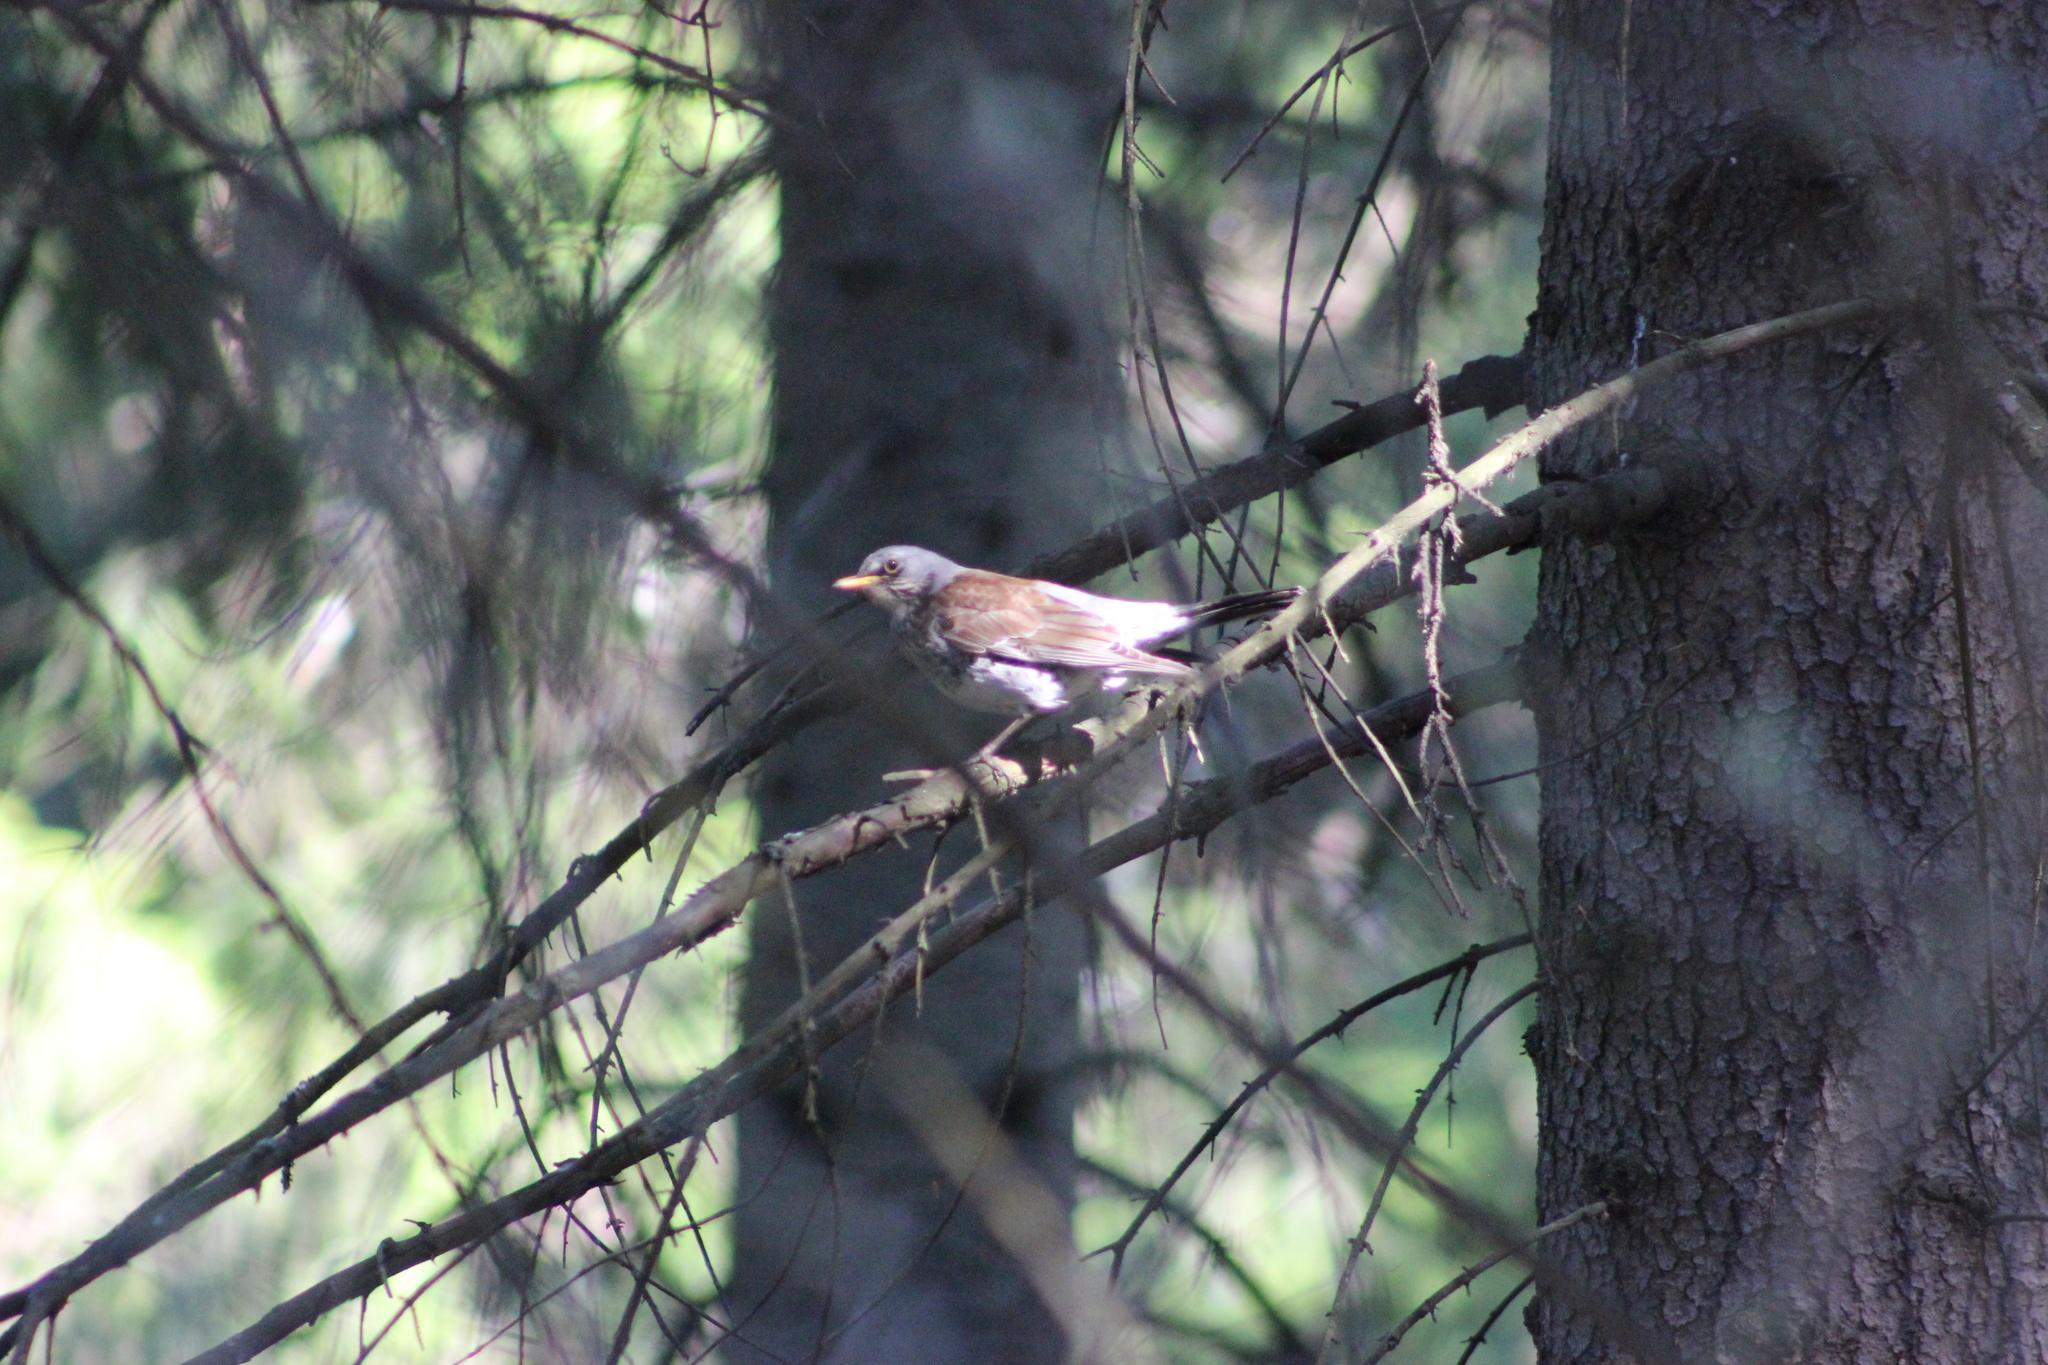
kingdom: Animalia
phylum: Chordata
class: Aves
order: Passeriformes
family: Turdidae
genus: Turdus
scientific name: Turdus pilaris
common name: Fieldfare
